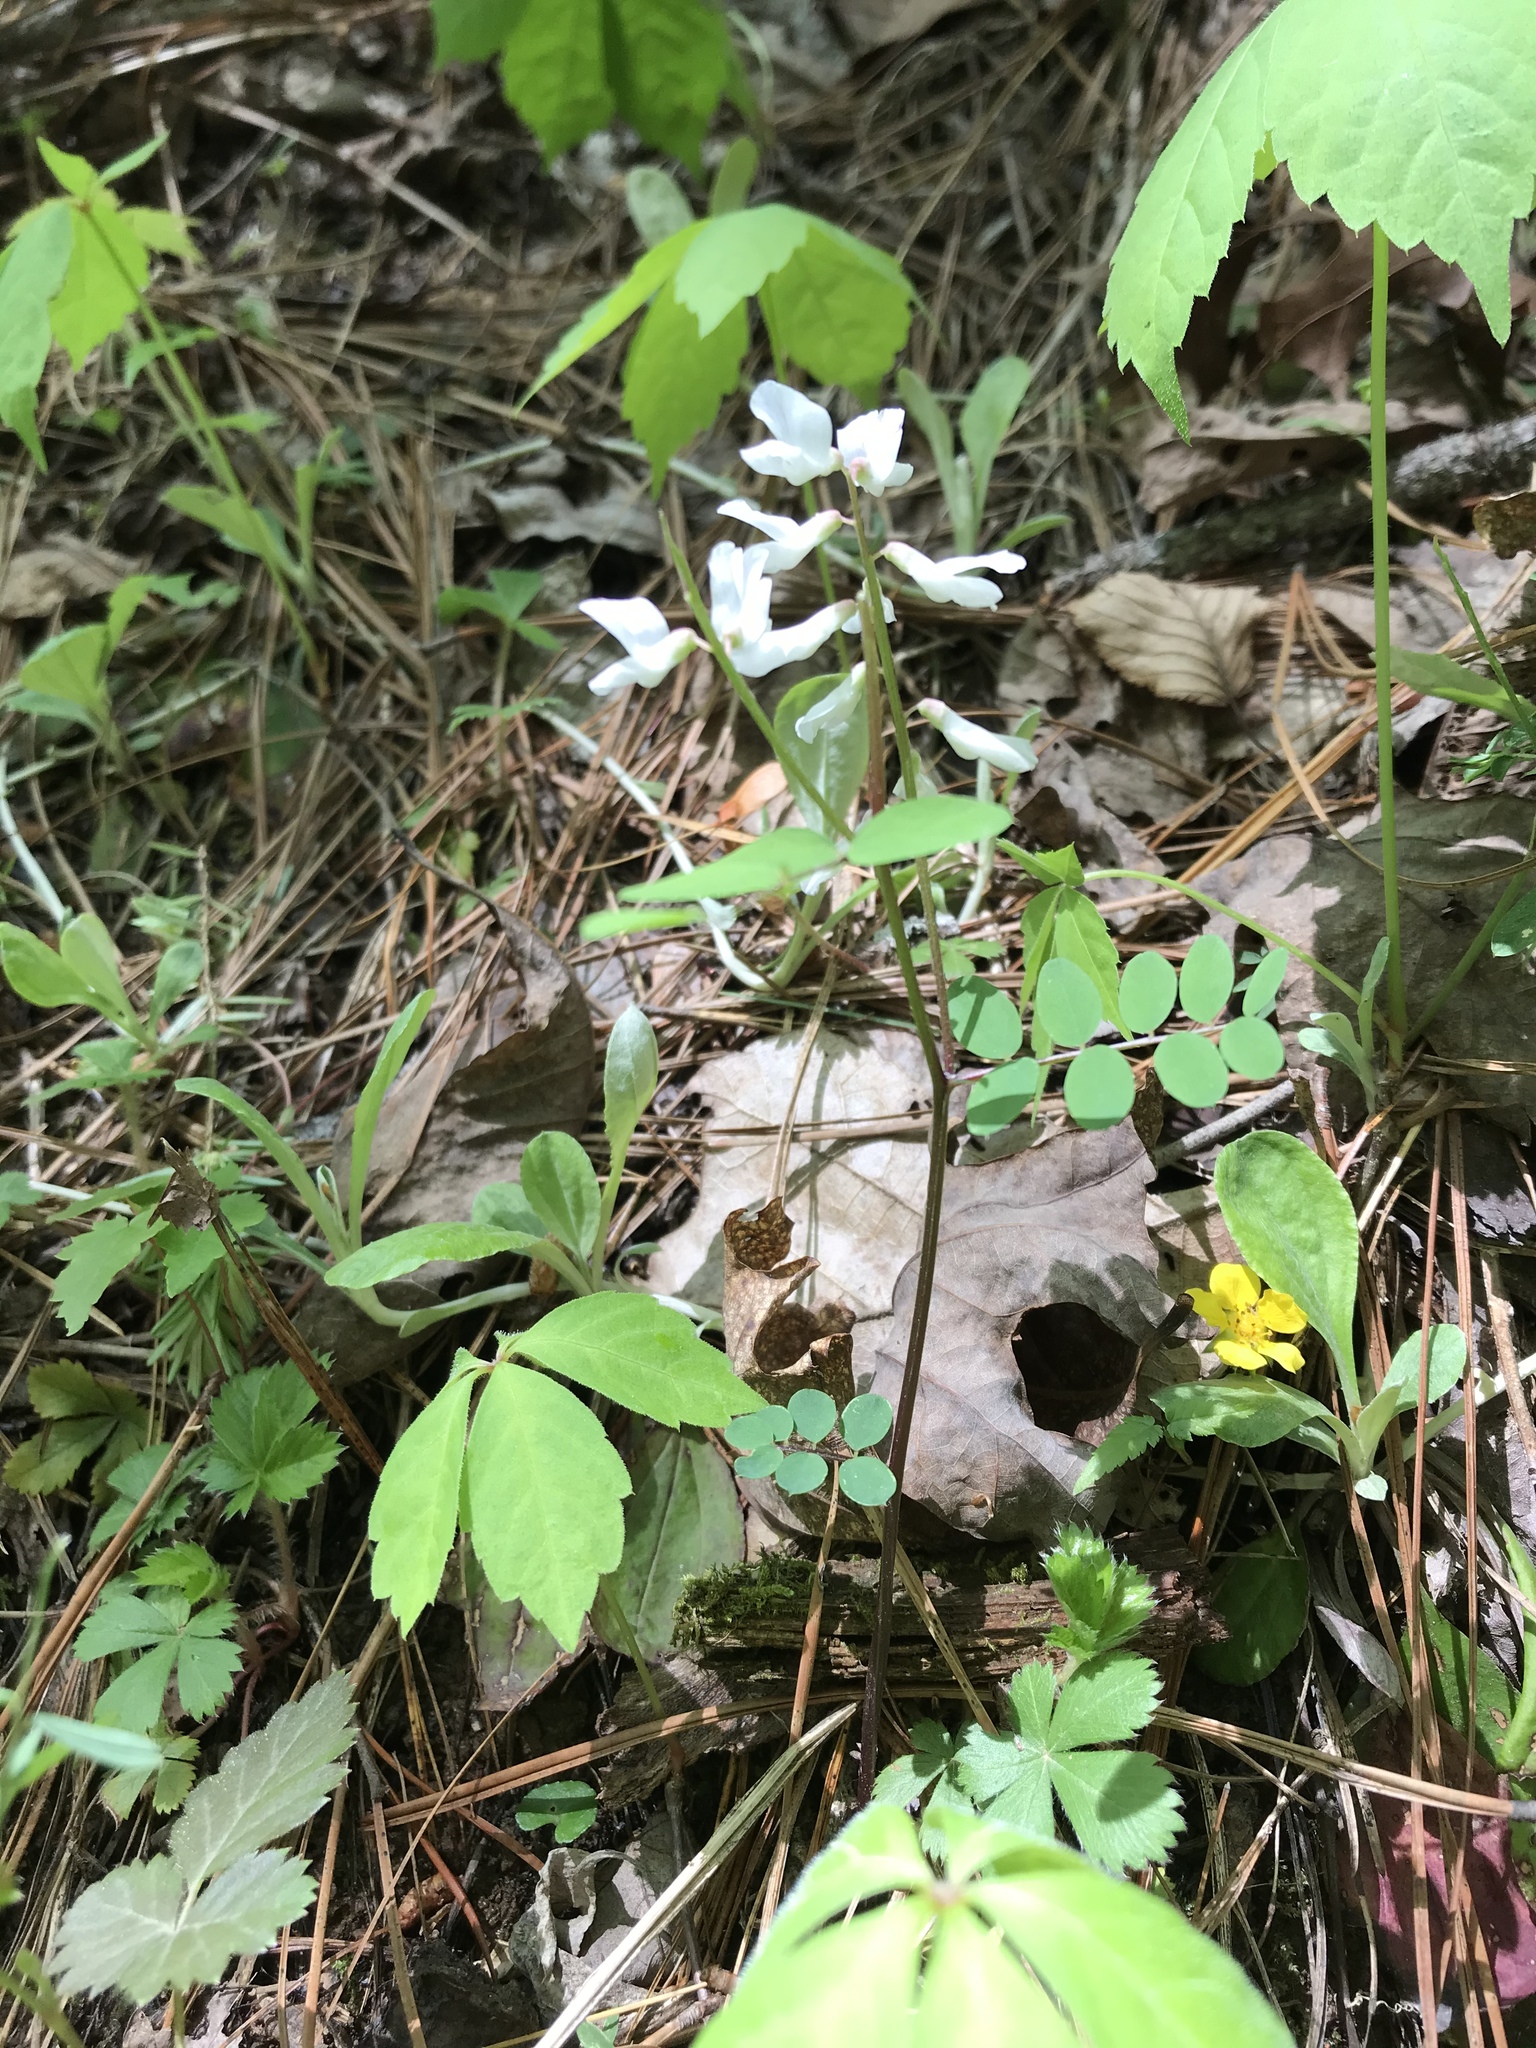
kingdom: Plantae
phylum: Tracheophyta
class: Magnoliopsida
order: Fabales
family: Fabaceae
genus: Vicia
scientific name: Vicia caroliniana
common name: Carolina vetch
